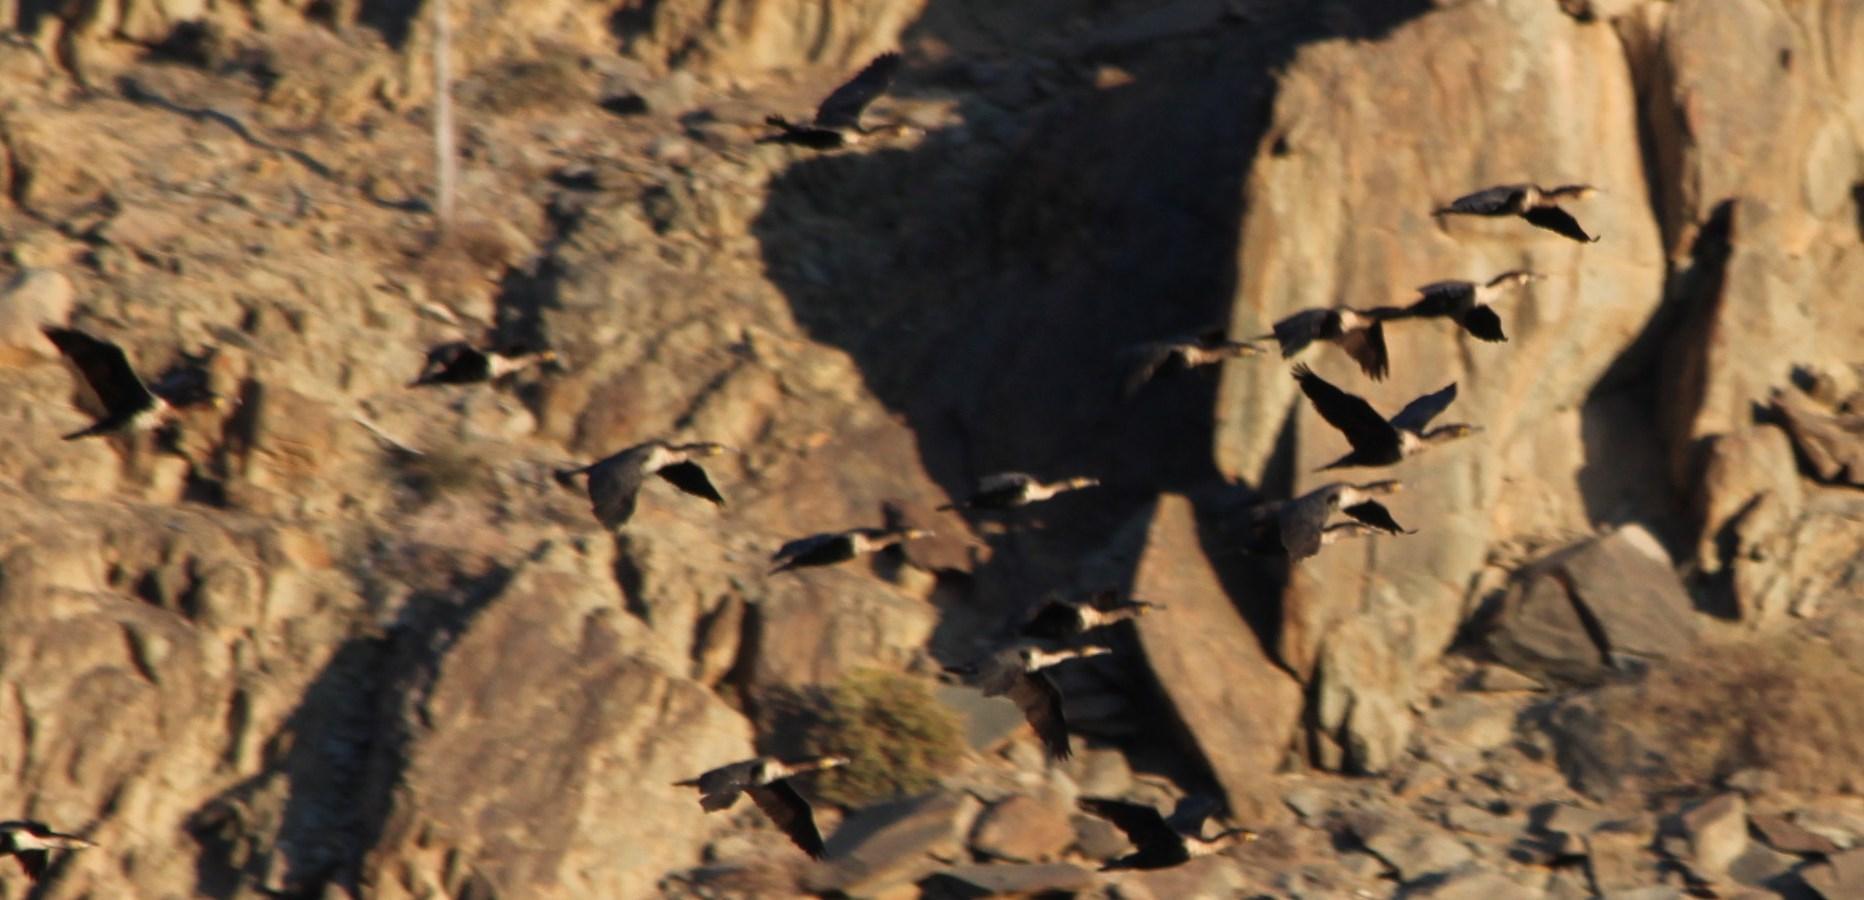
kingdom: Animalia
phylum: Chordata
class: Aves
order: Suliformes
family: Phalacrocoracidae
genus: Phalacrocorax
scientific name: Phalacrocorax carbo
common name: Great cormorant
